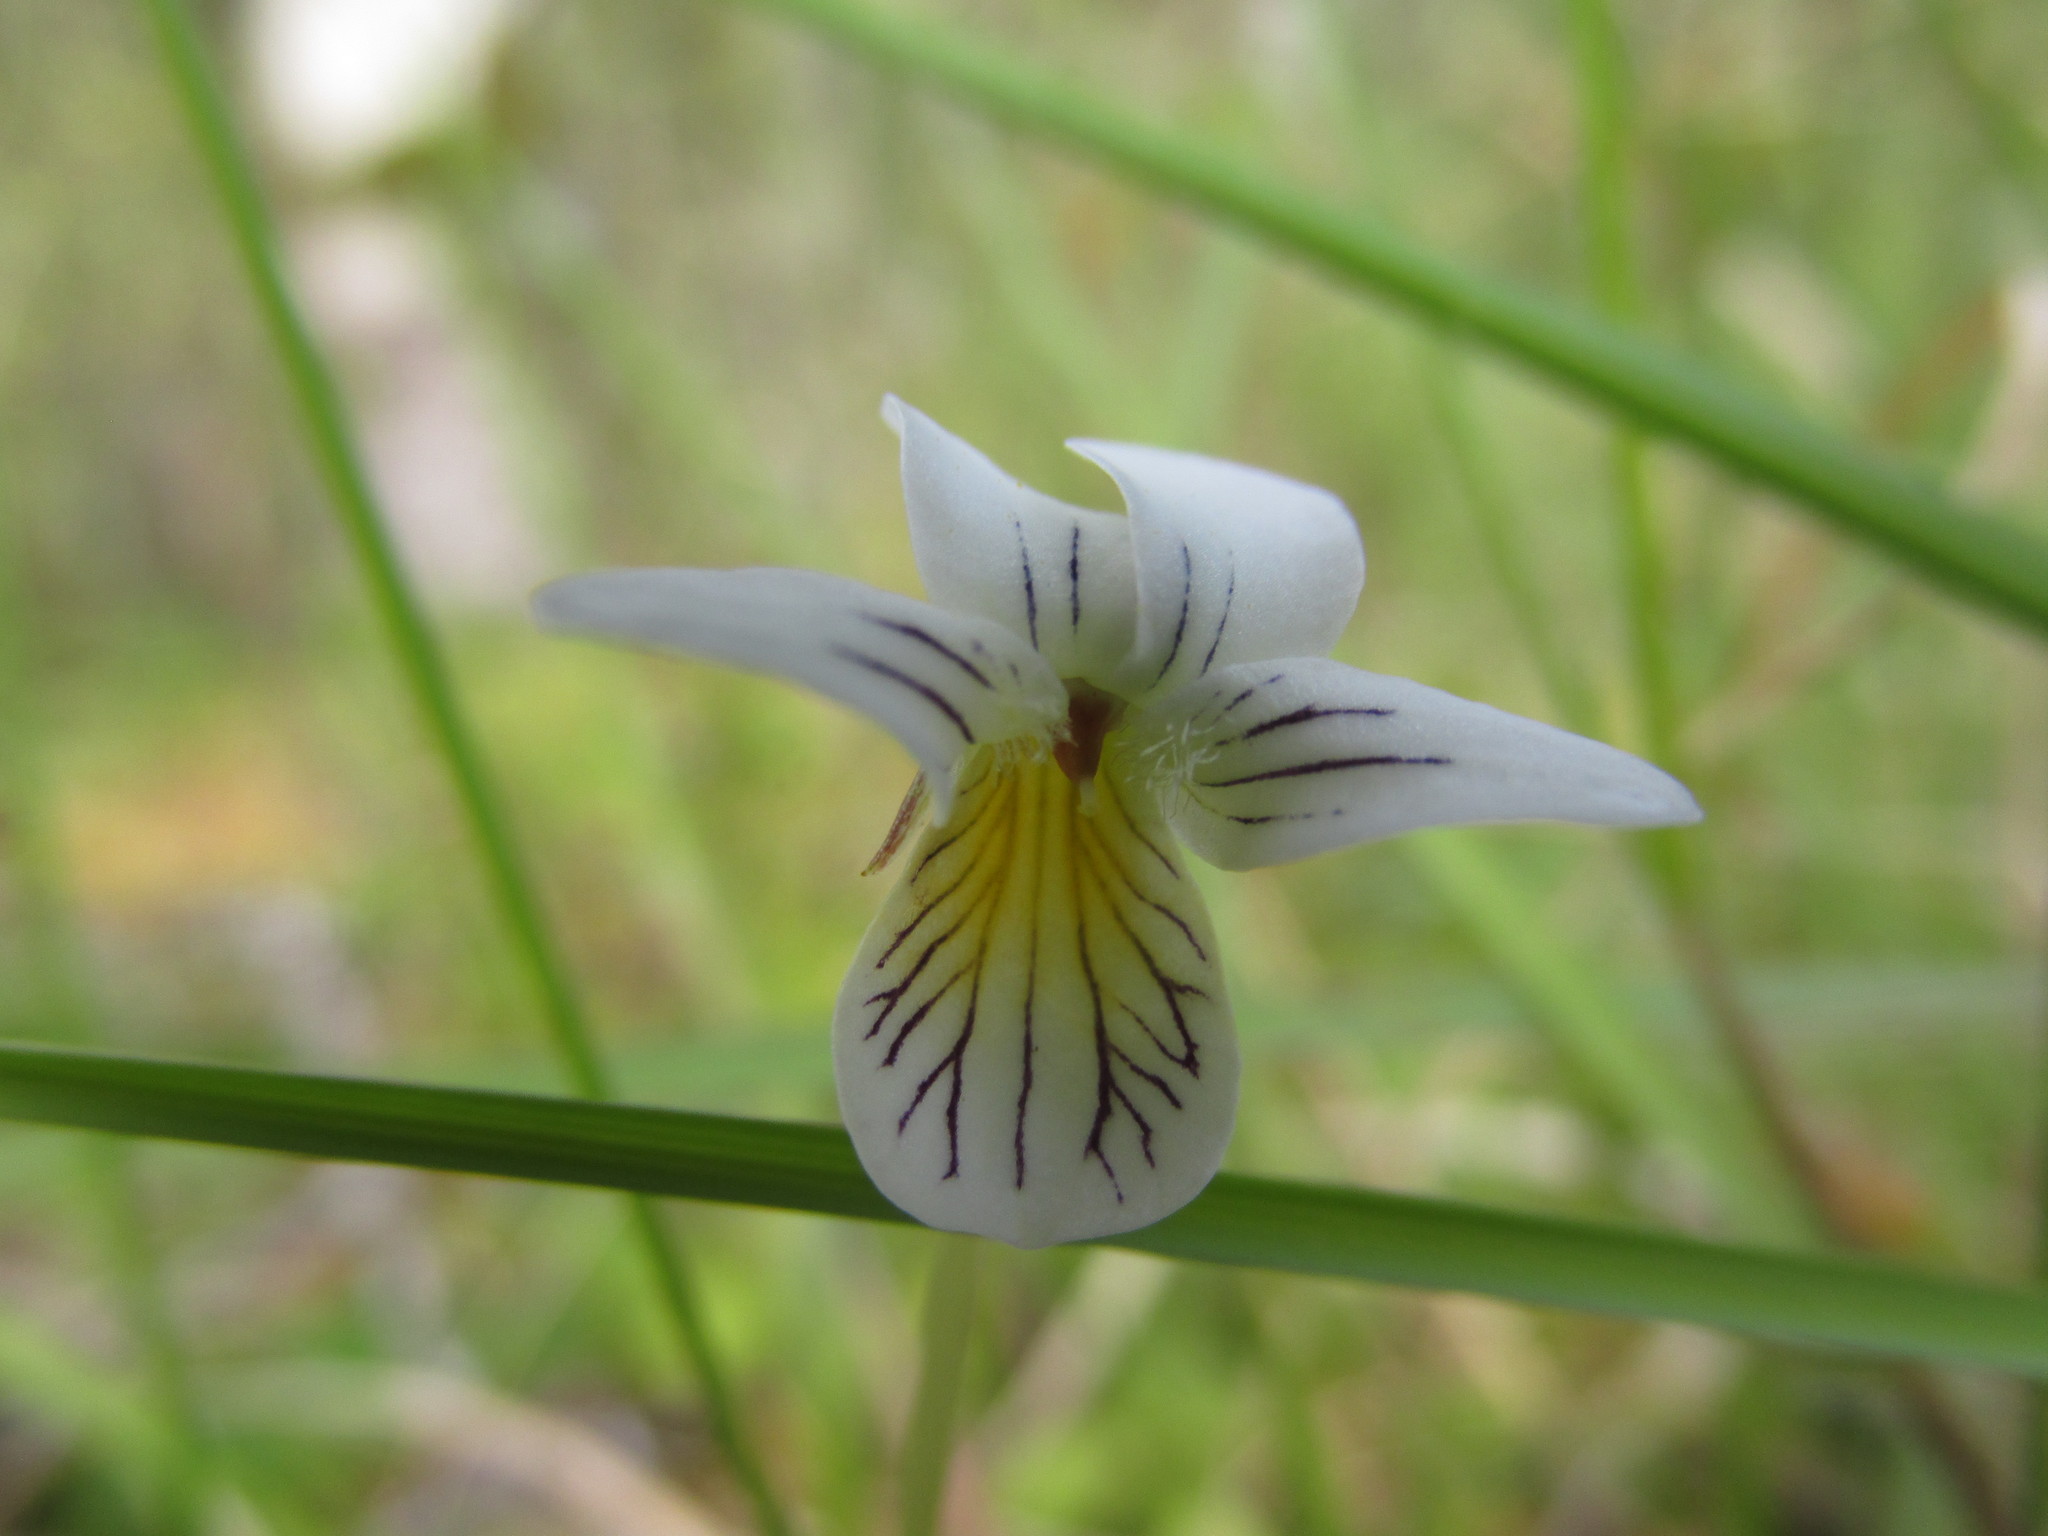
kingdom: Plantae
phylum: Tracheophyta
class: Magnoliopsida
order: Malpighiales
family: Violaceae
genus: Viola
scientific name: Viola filicaulis
